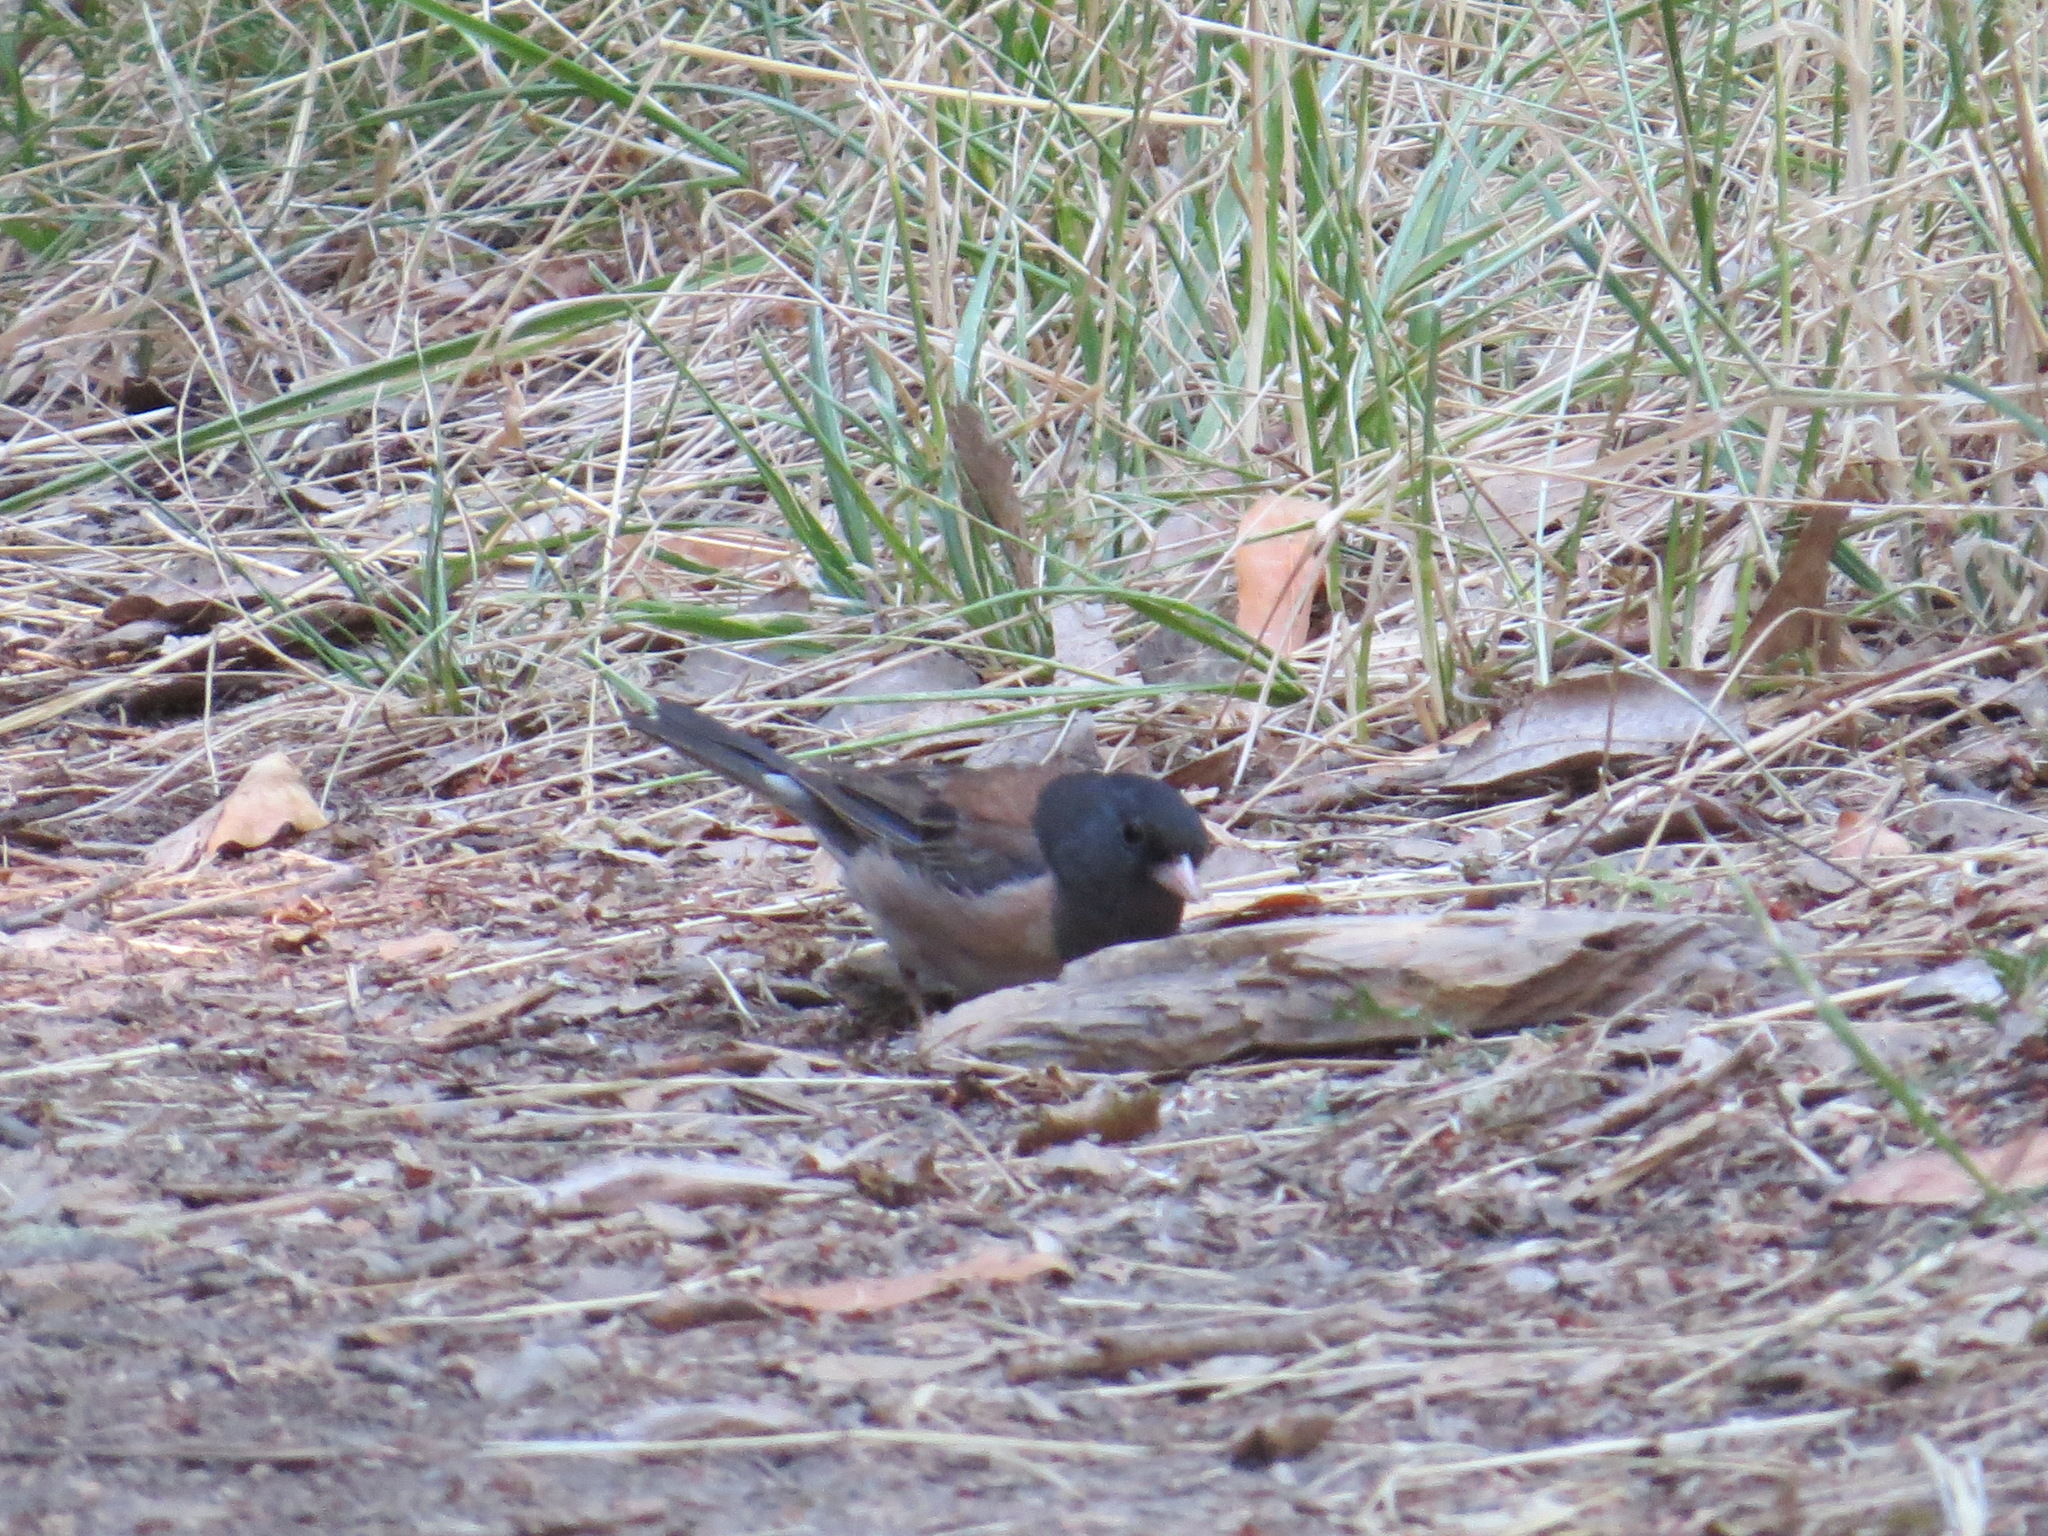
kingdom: Animalia
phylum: Chordata
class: Aves
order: Passeriformes
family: Passerellidae
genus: Junco
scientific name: Junco hyemalis
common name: Dark-eyed junco
